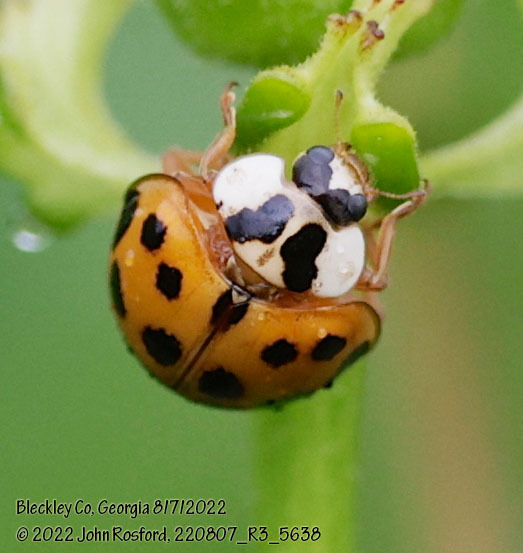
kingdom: Animalia
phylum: Arthropoda
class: Insecta
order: Coleoptera
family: Coccinellidae
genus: Harmonia
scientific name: Harmonia axyridis
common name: Harlequin ladybird
